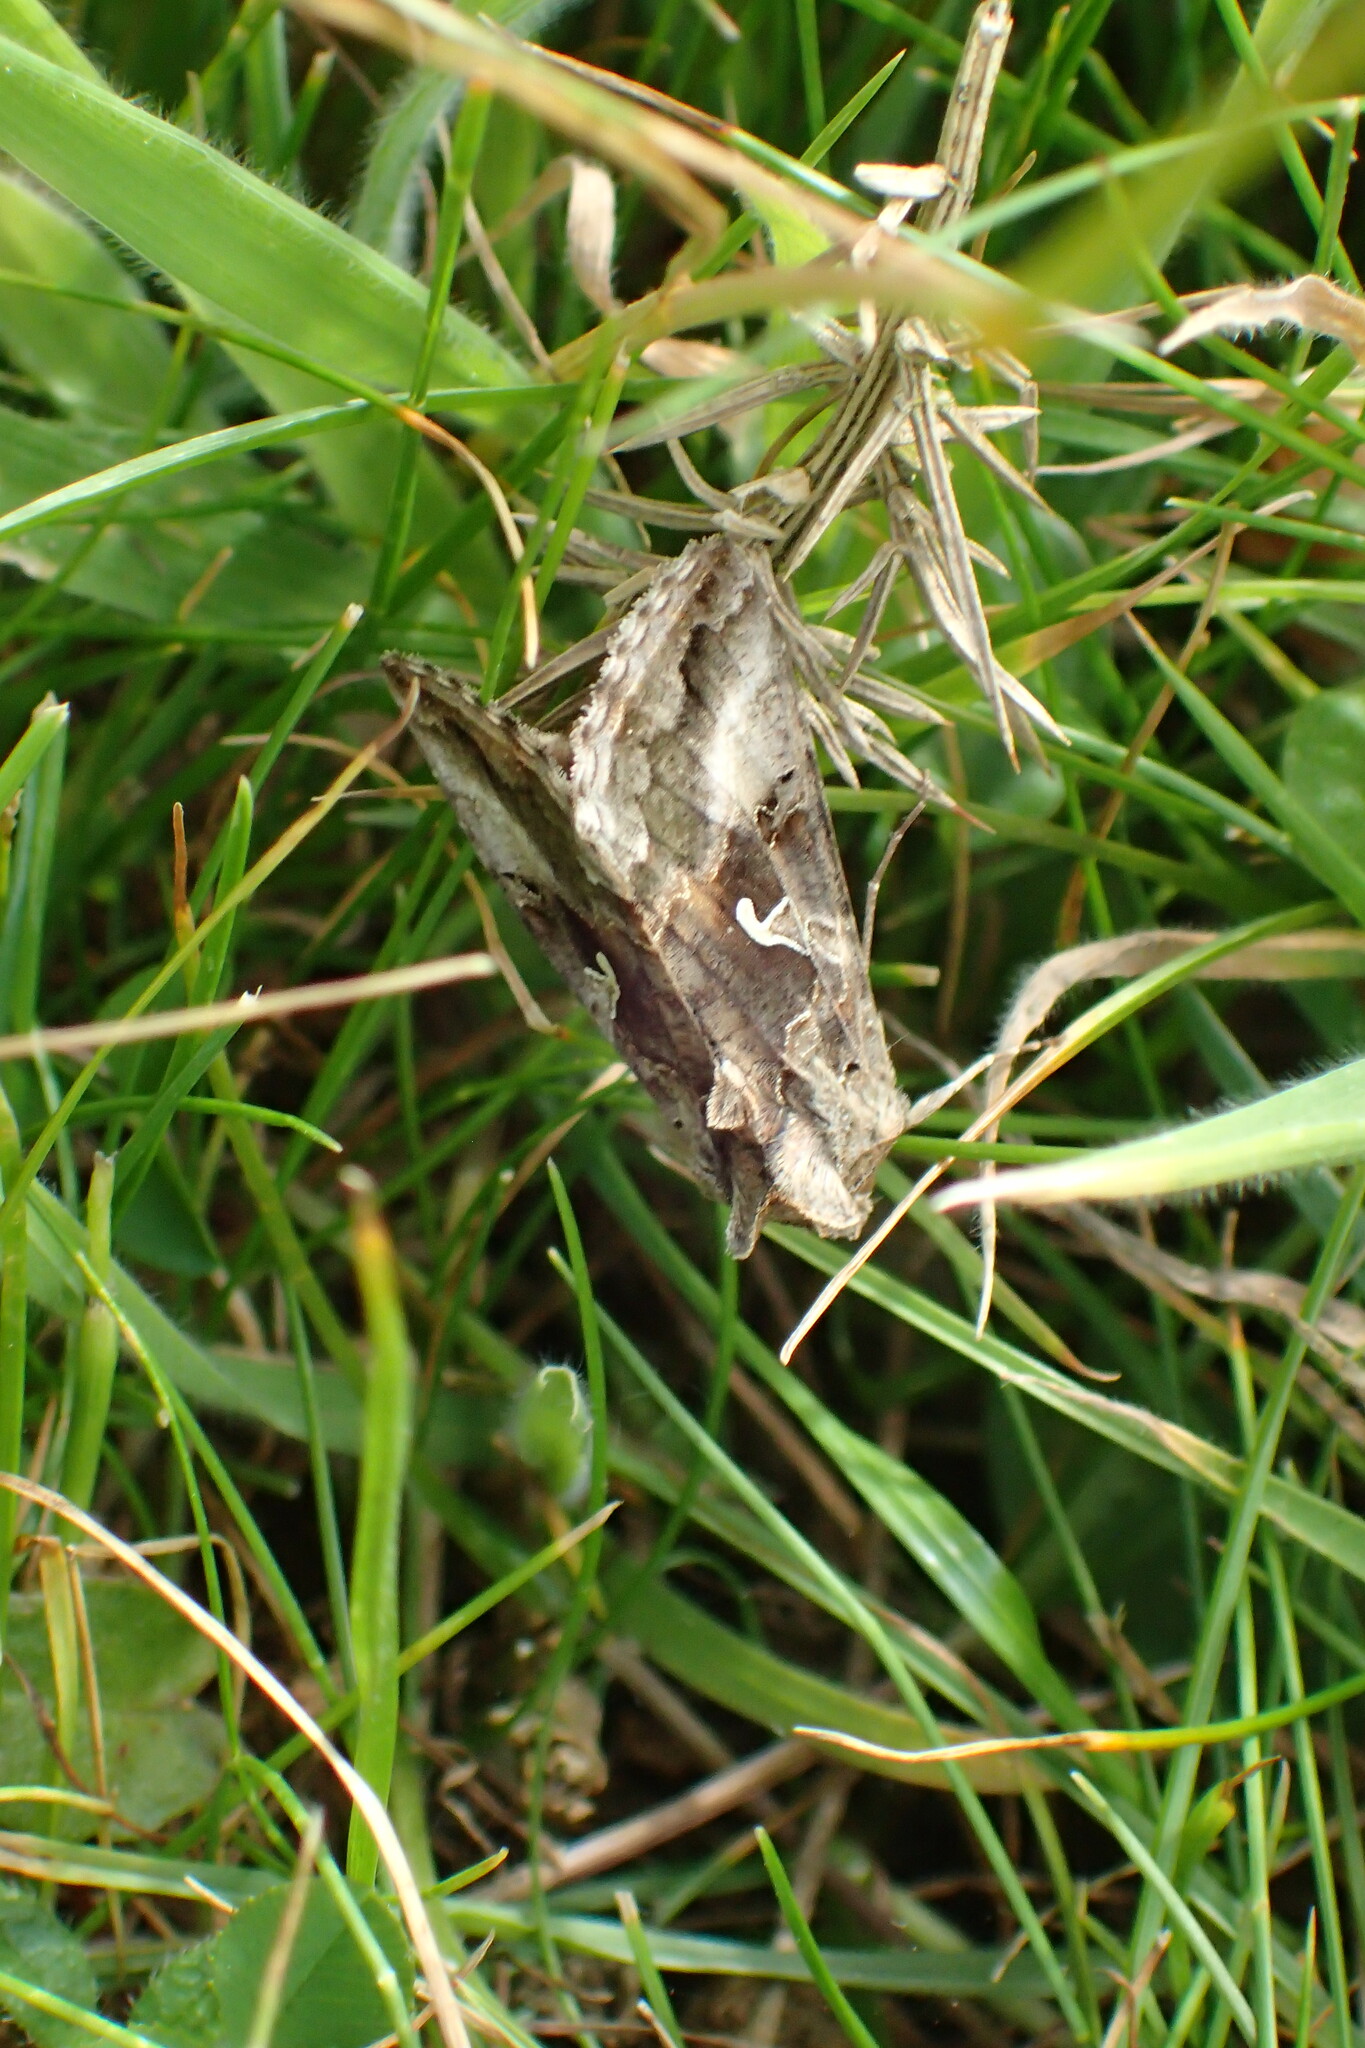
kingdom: Animalia
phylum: Arthropoda
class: Insecta
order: Lepidoptera
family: Noctuidae
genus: Autographa
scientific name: Autographa gamma
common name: Silver y
